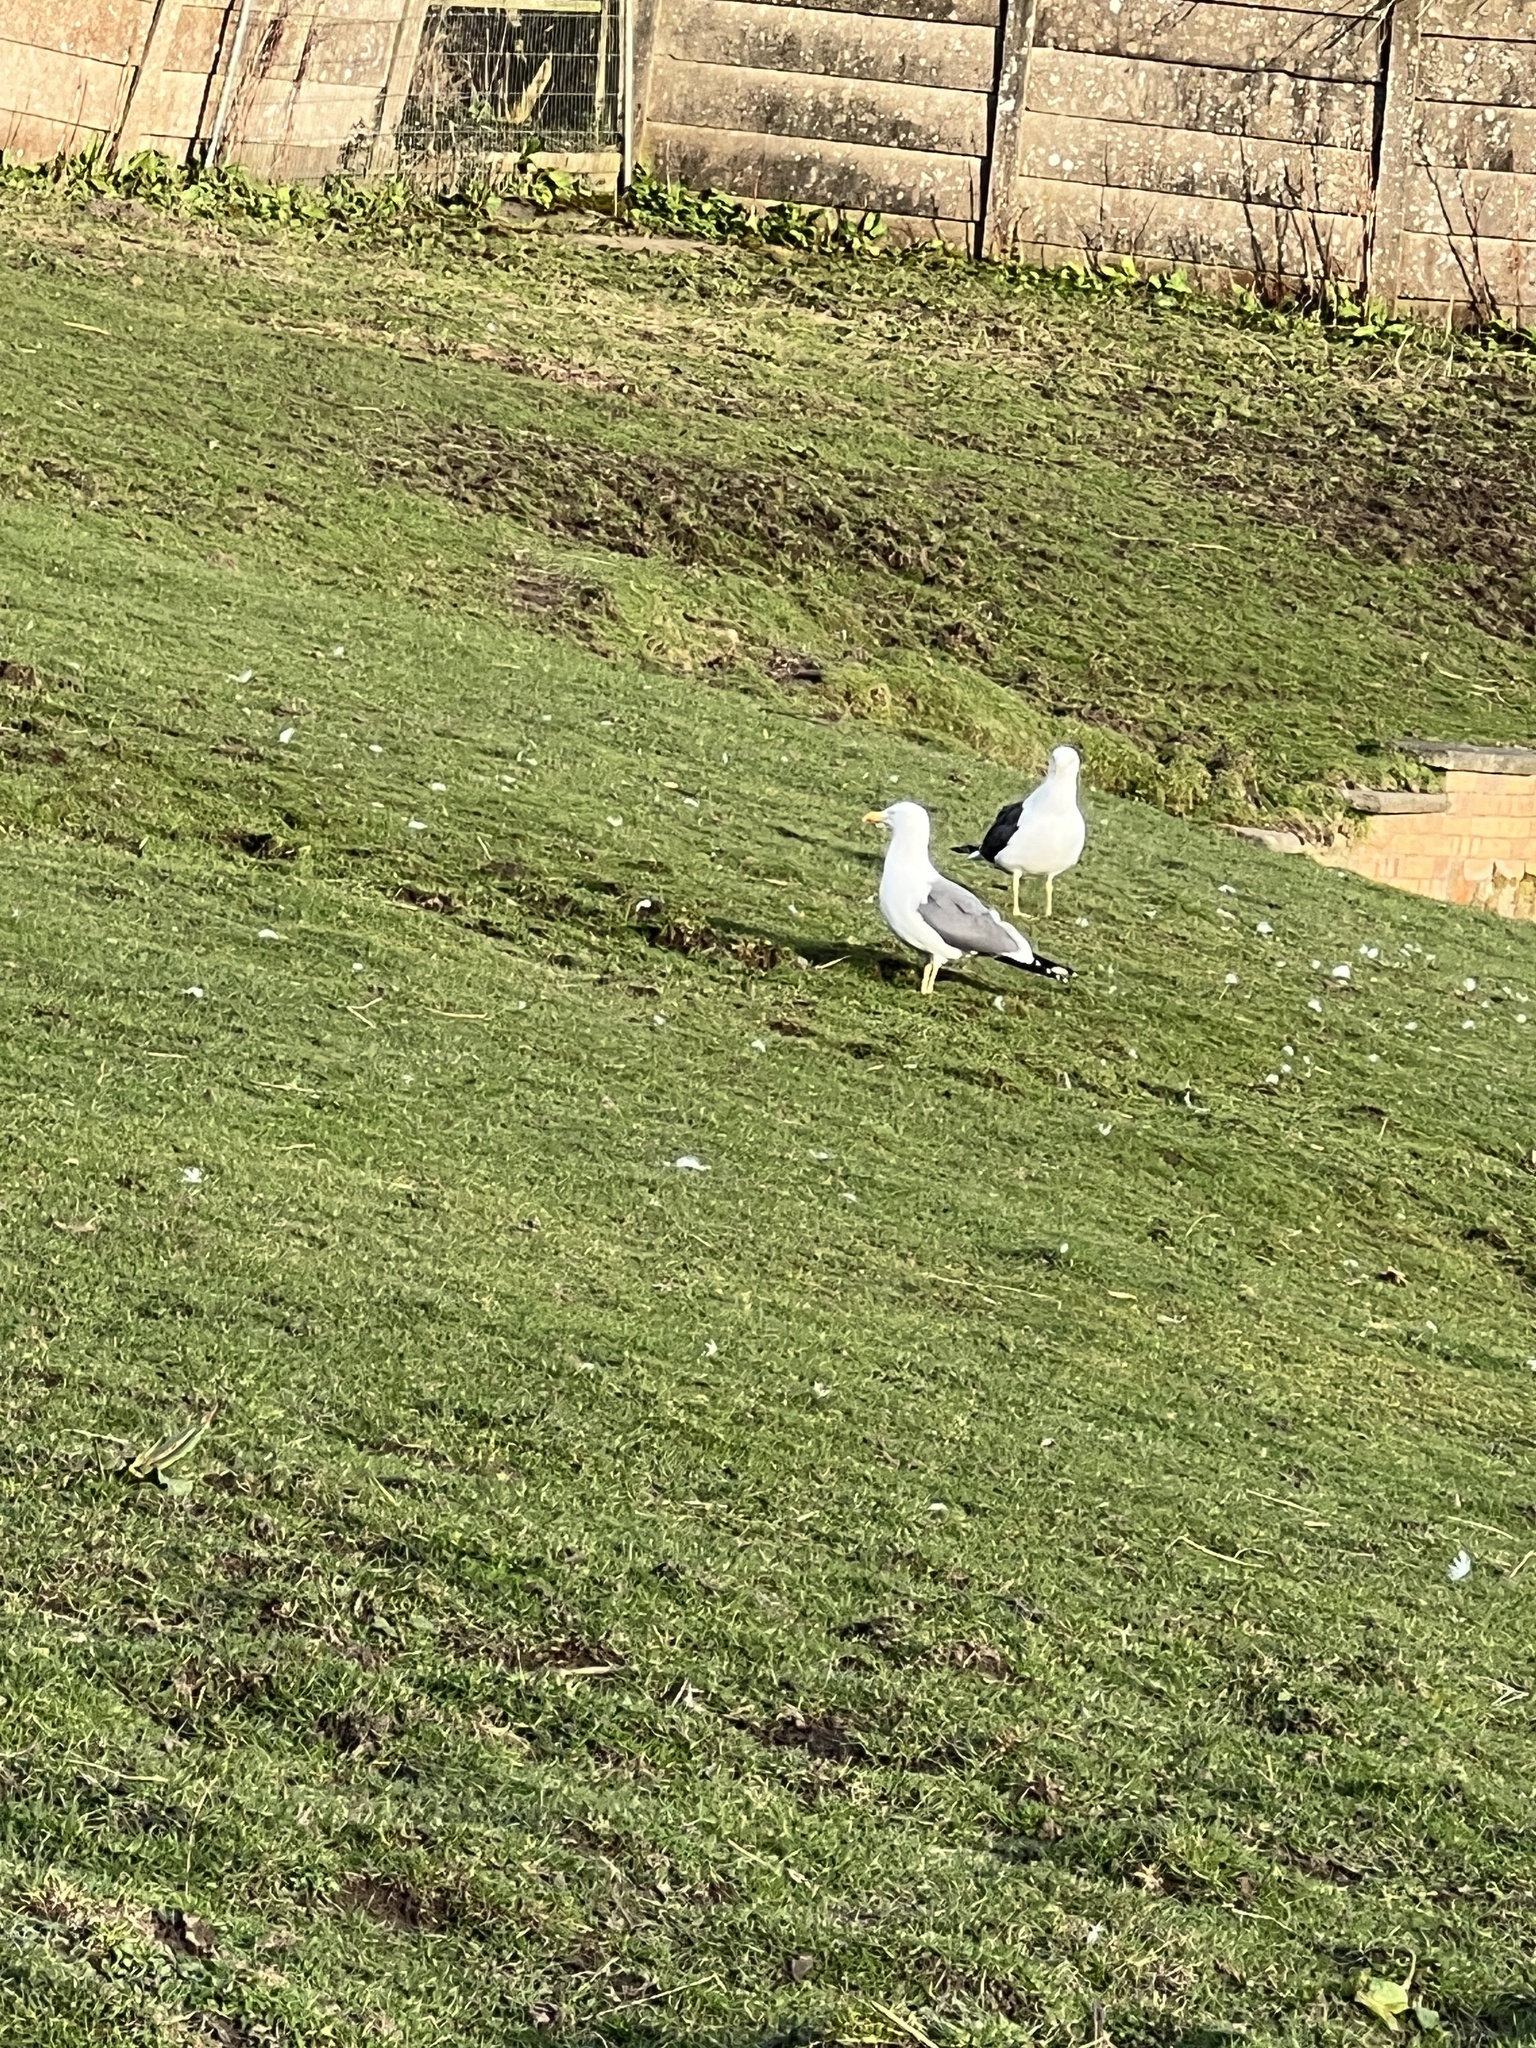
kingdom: Animalia
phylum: Chordata
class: Aves
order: Charadriiformes
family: Laridae
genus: Larus
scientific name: Larus fuscus
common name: Lesser black-backed gull
